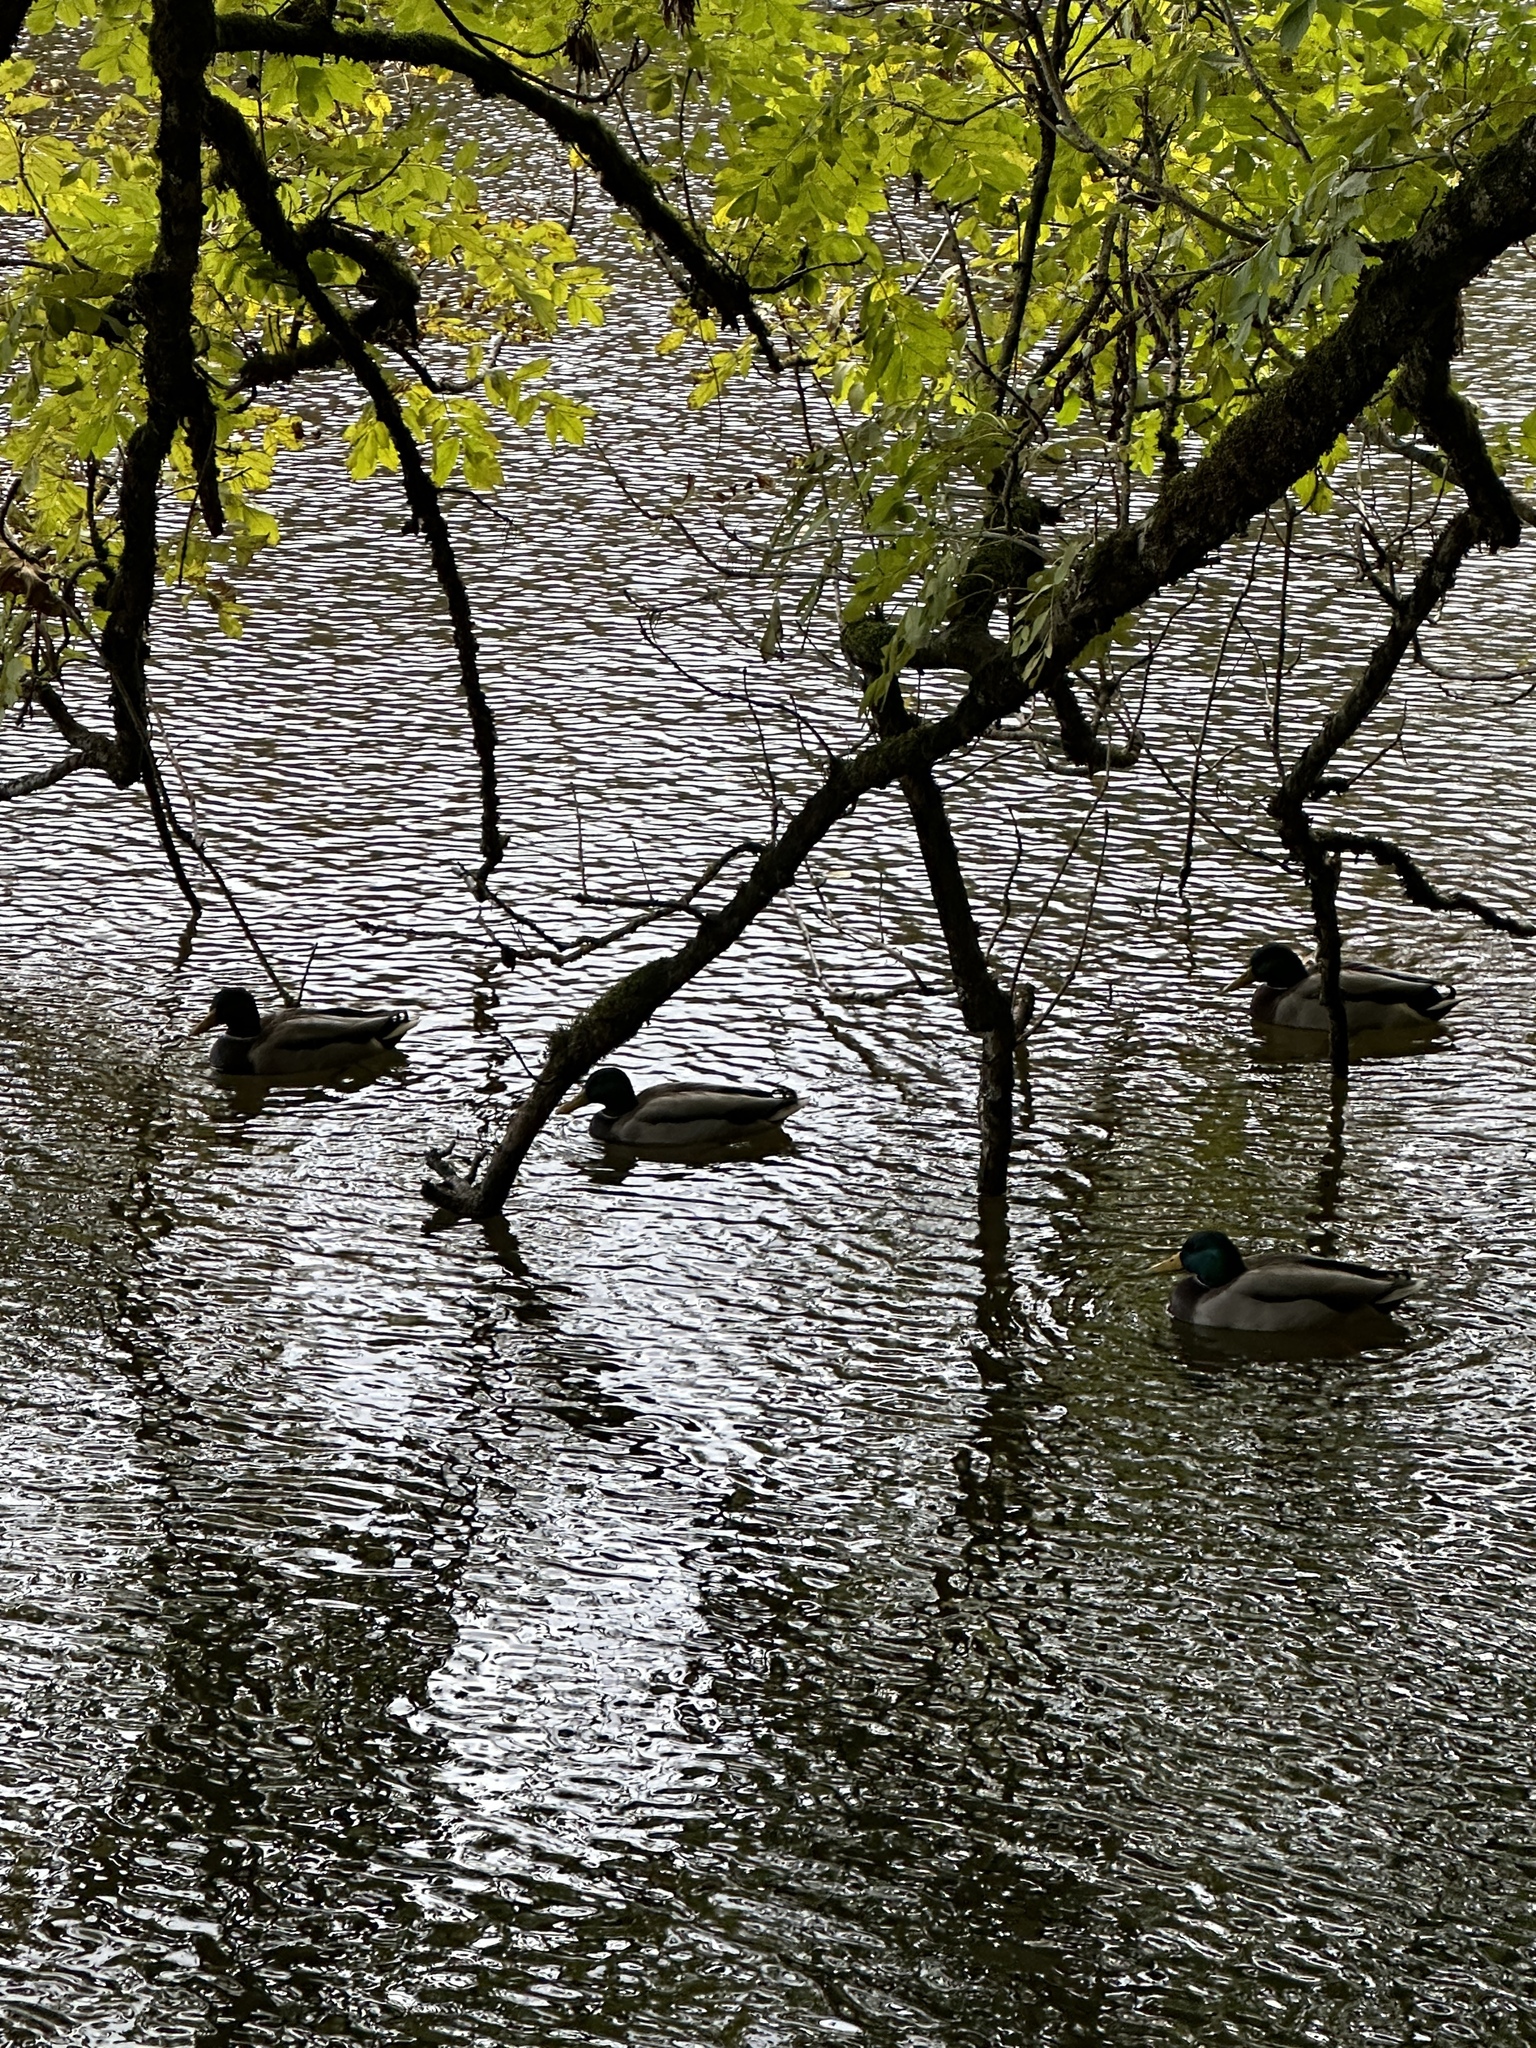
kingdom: Animalia
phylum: Chordata
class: Aves
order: Anseriformes
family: Anatidae
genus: Anas
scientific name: Anas platyrhynchos
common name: Mallard
